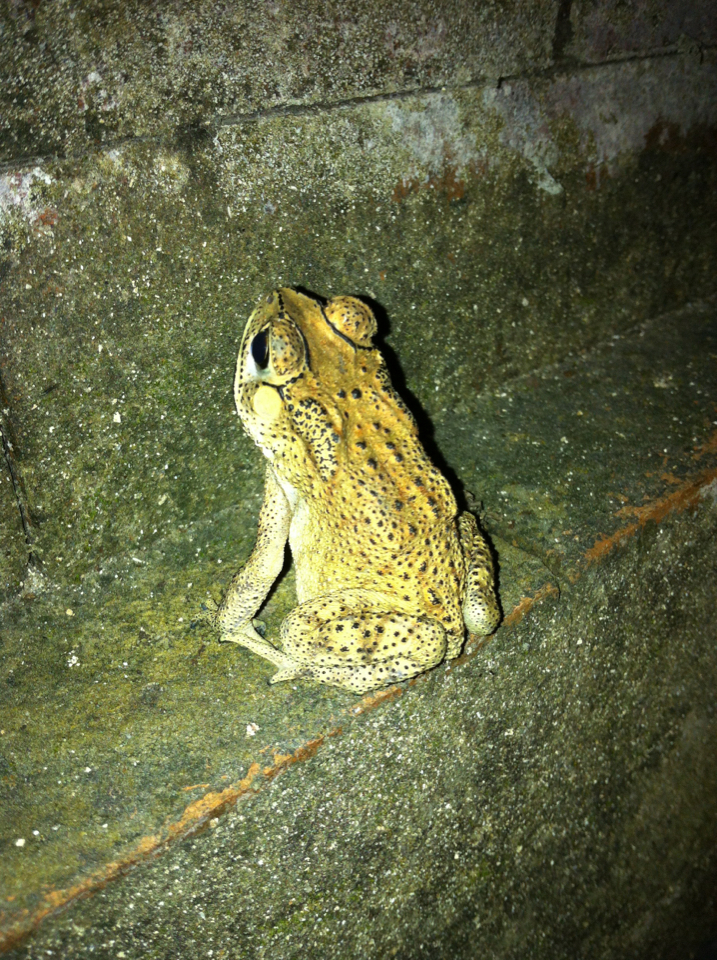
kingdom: Animalia
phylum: Chordata
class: Amphibia
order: Anura
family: Bufonidae
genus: Duttaphrynus
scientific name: Duttaphrynus melanostictus
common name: Common sunda toad
